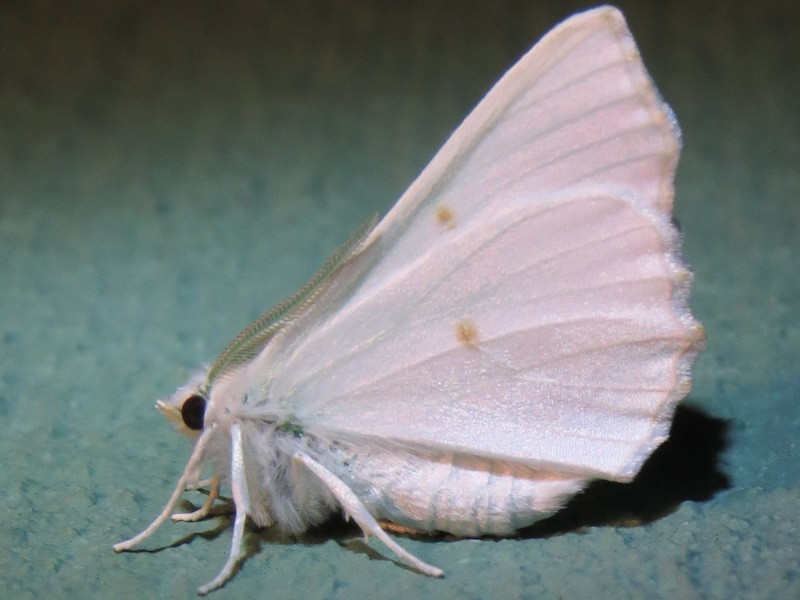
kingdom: Animalia
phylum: Arthropoda
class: Insecta
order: Lepidoptera
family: Geometridae
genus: Ennomos
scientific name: Ennomos subsignaria
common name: Elm spanworm
